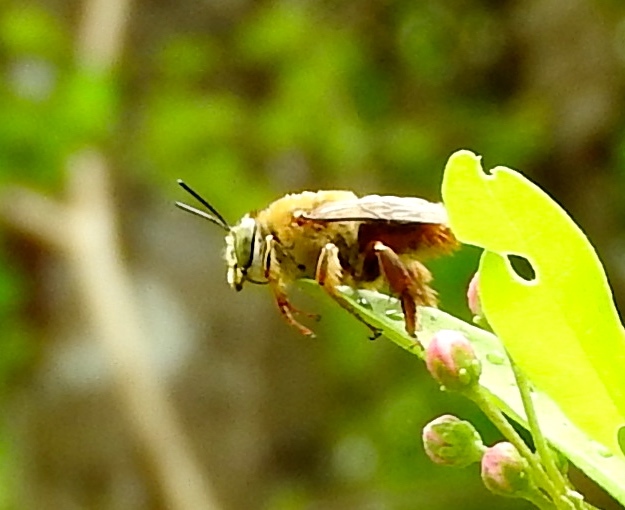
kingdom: Animalia
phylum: Arthropoda
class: Insecta
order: Hymenoptera
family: Apidae
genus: Centris
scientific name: Centris
